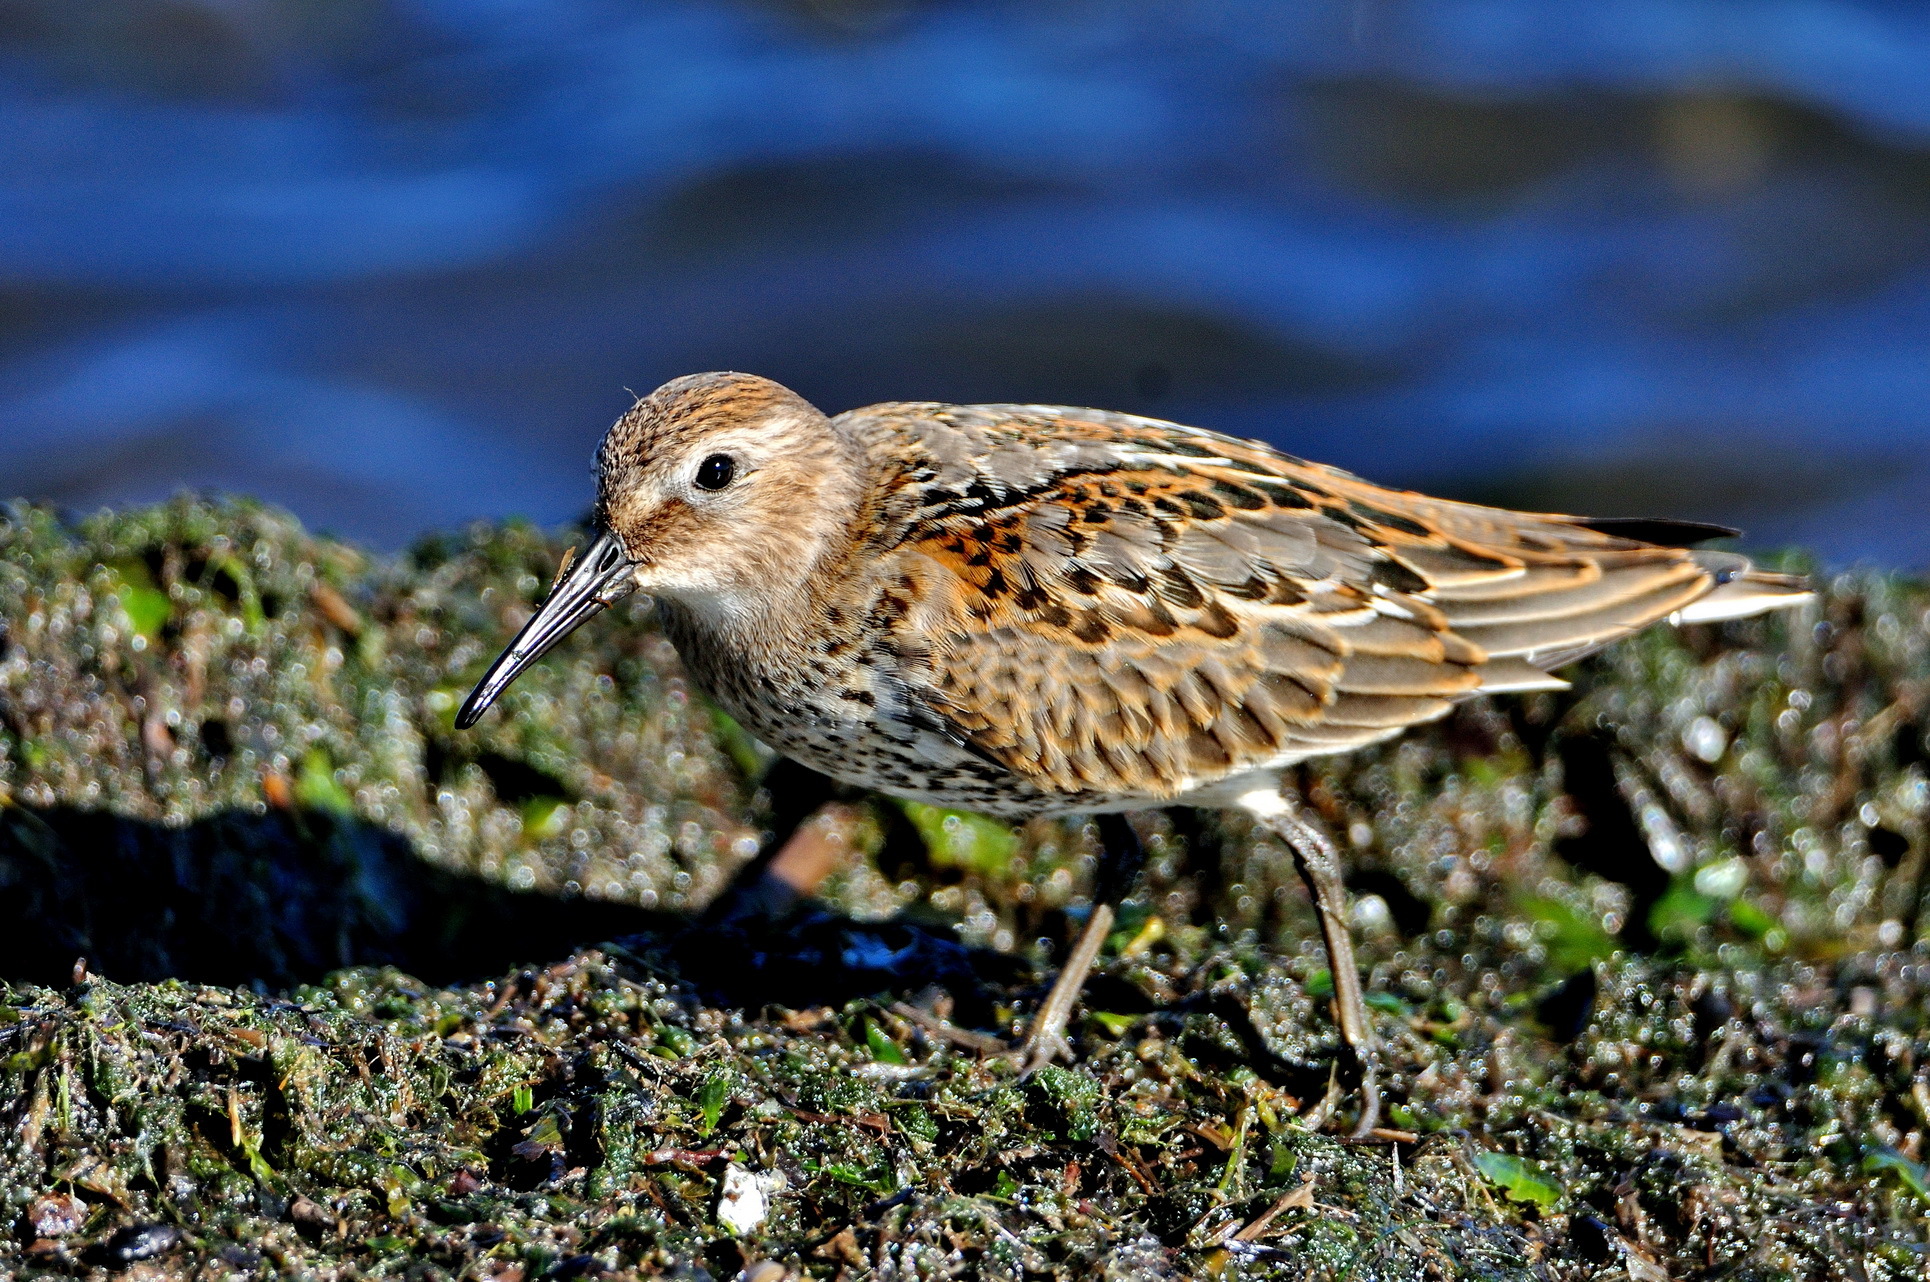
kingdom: Animalia
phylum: Chordata
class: Aves
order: Charadriiformes
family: Scolopacidae
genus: Calidris
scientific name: Calidris alpina
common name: Dunlin
